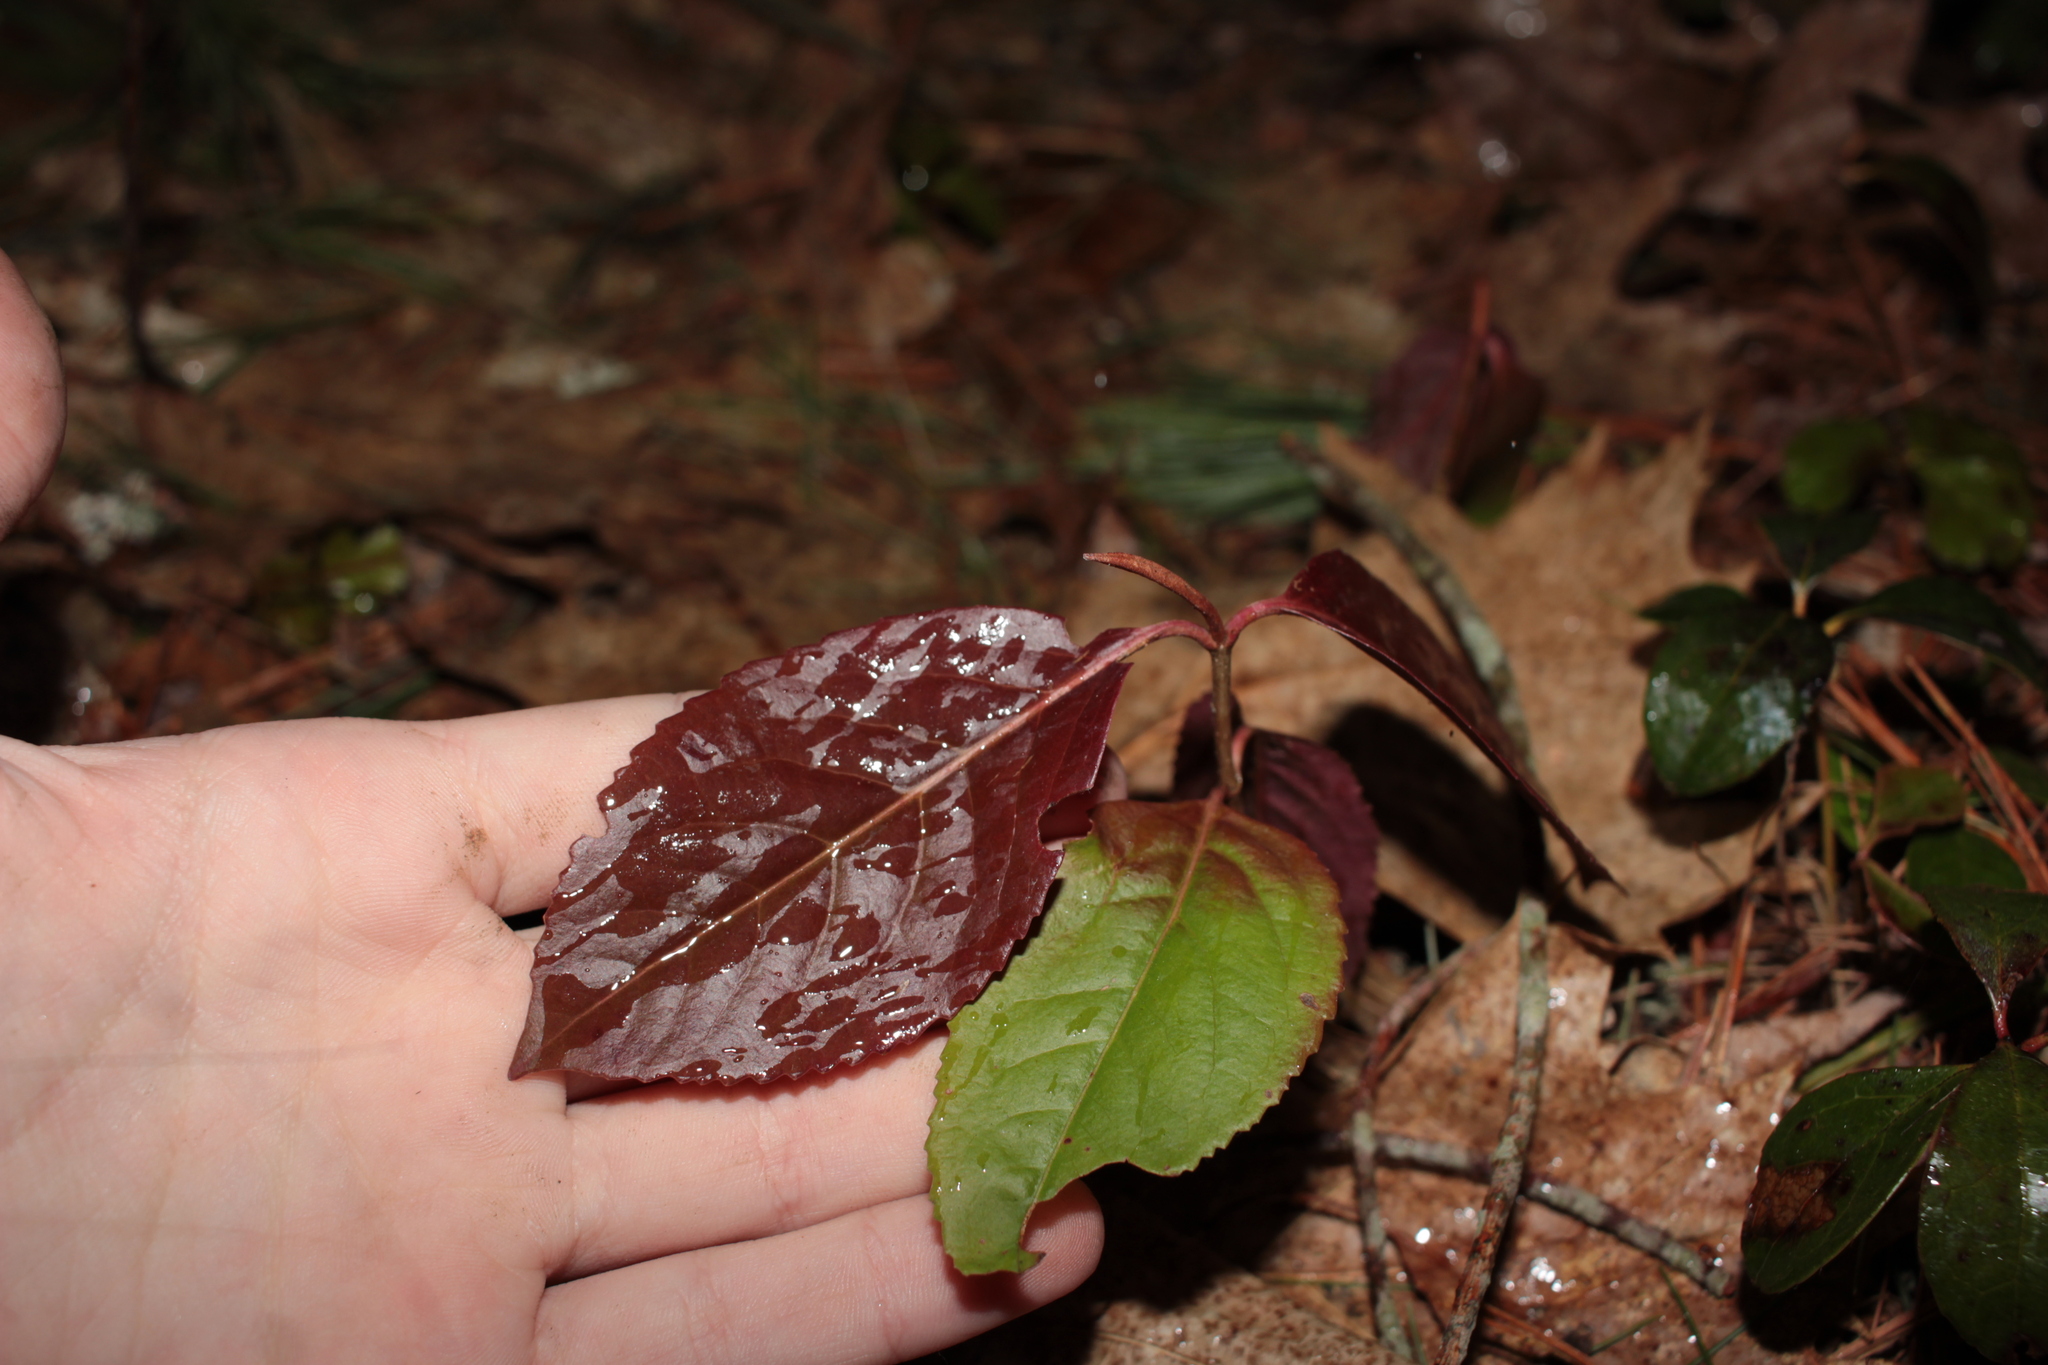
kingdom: Plantae
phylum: Tracheophyta
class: Magnoliopsida
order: Dipsacales
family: Viburnaceae
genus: Viburnum
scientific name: Viburnum cassinoides
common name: Swamp haw
